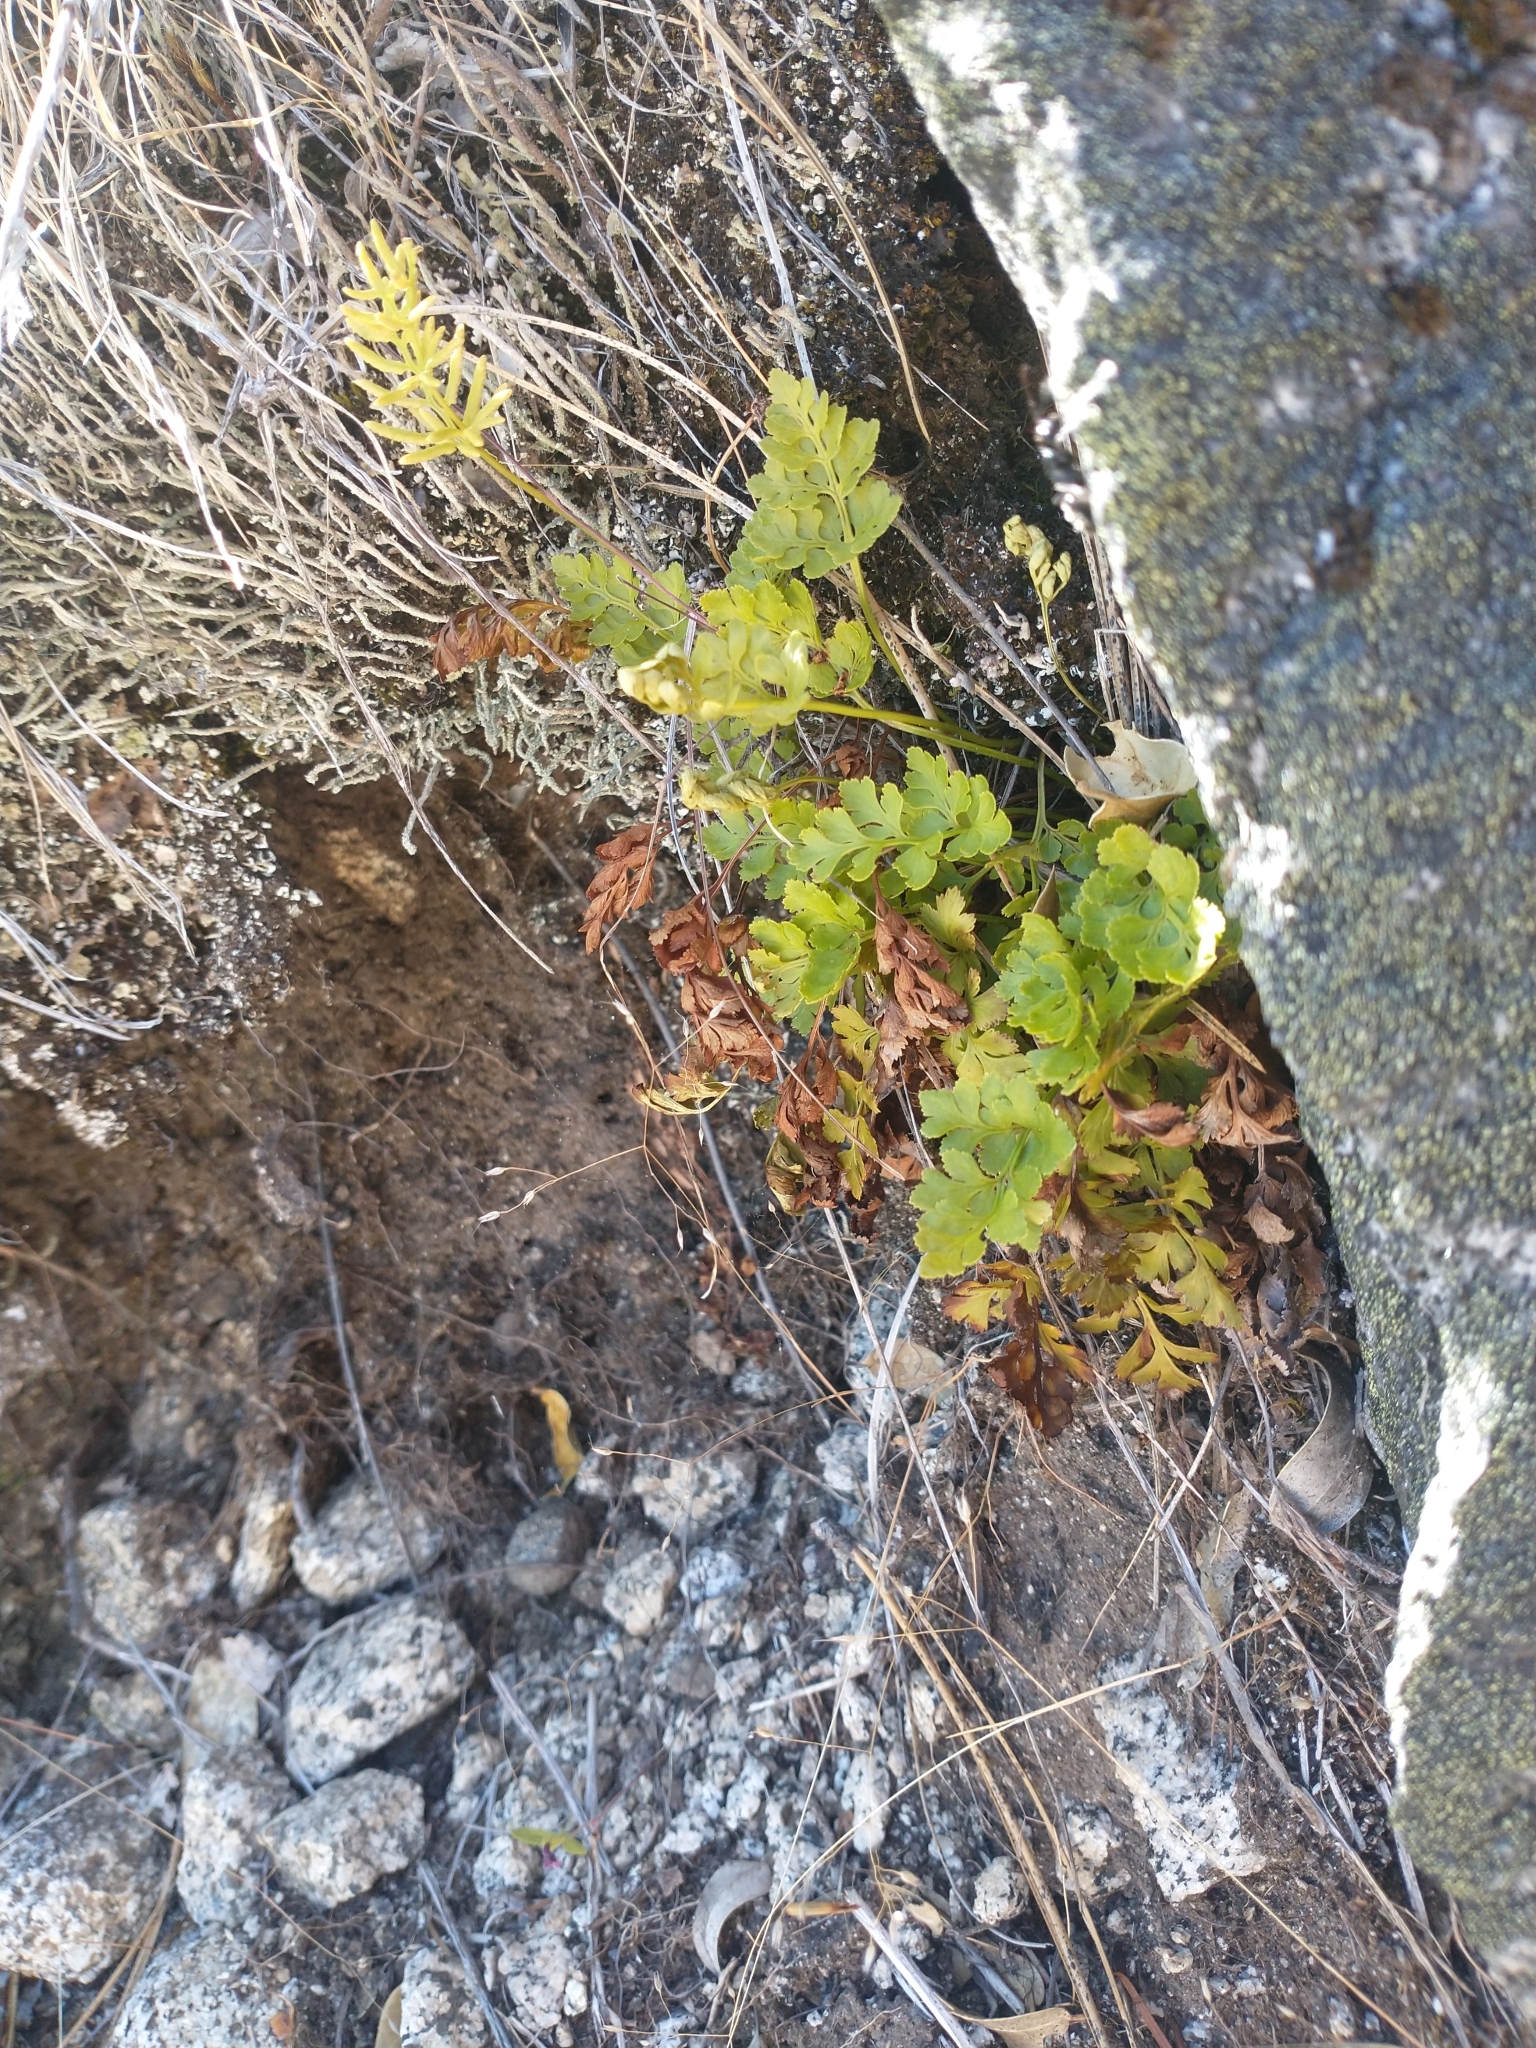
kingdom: Plantae
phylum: Tracheophyta
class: Polypodiopsida
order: Polypodiales
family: Pteridaceae
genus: Cryptogramma
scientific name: Cryptogramma acrostichoides
